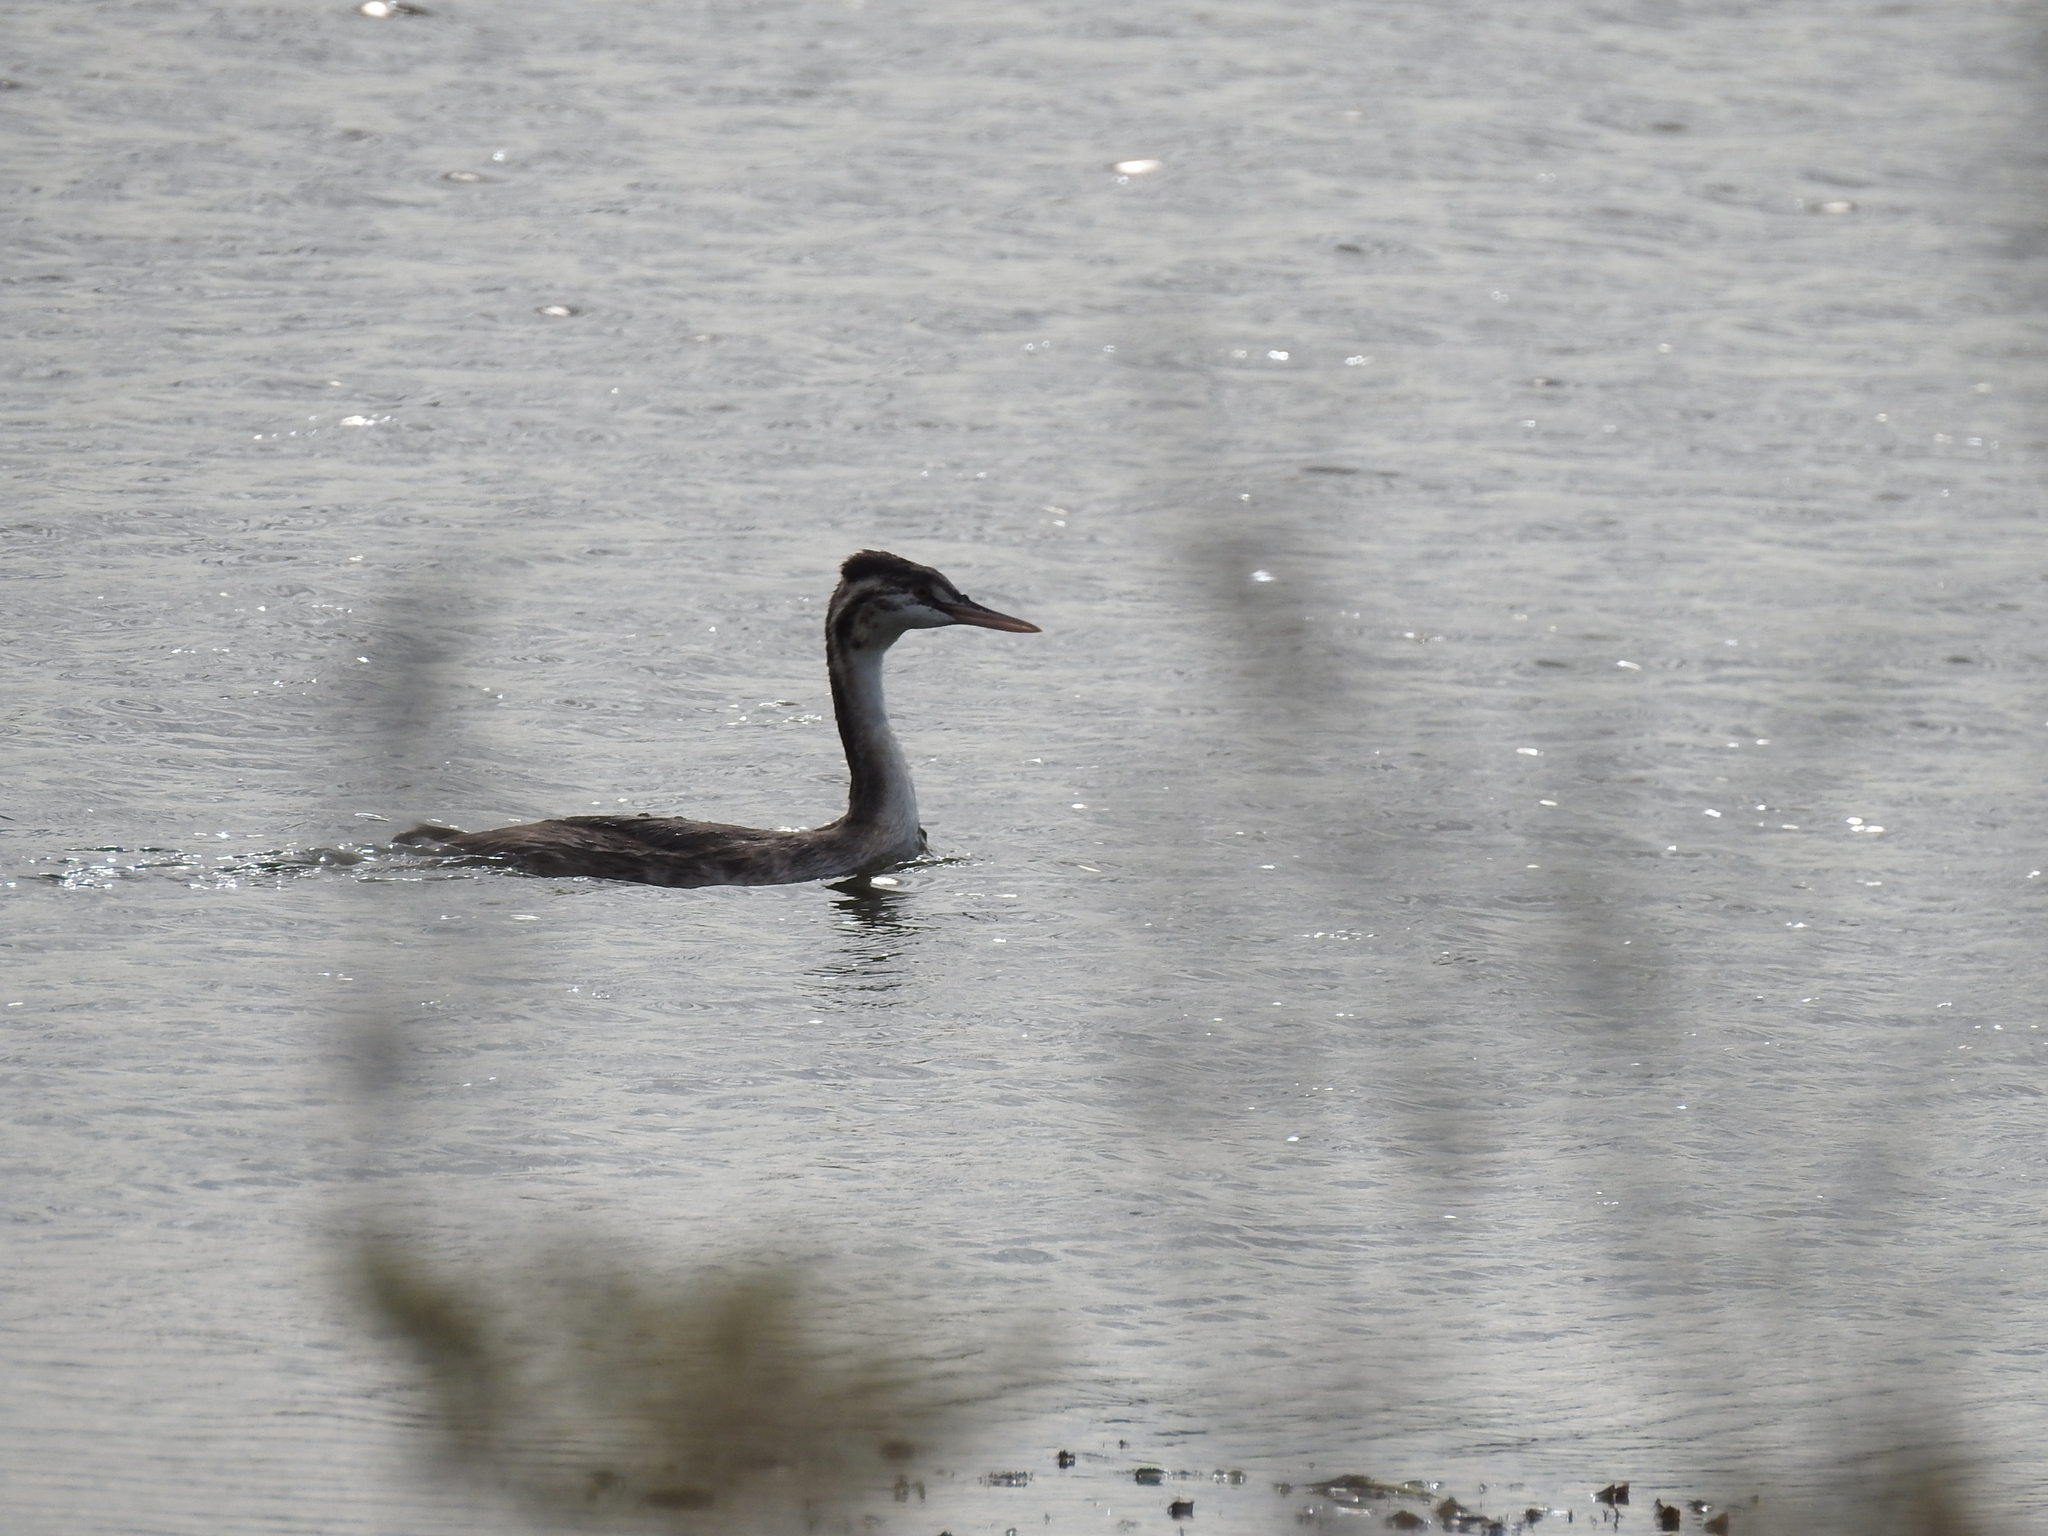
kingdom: Animalia
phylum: Chordata
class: Aves
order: Podicipediformes
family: Podicipedidae
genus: Podiceps
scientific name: Podiceps cristatus
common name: Great crested grebe
